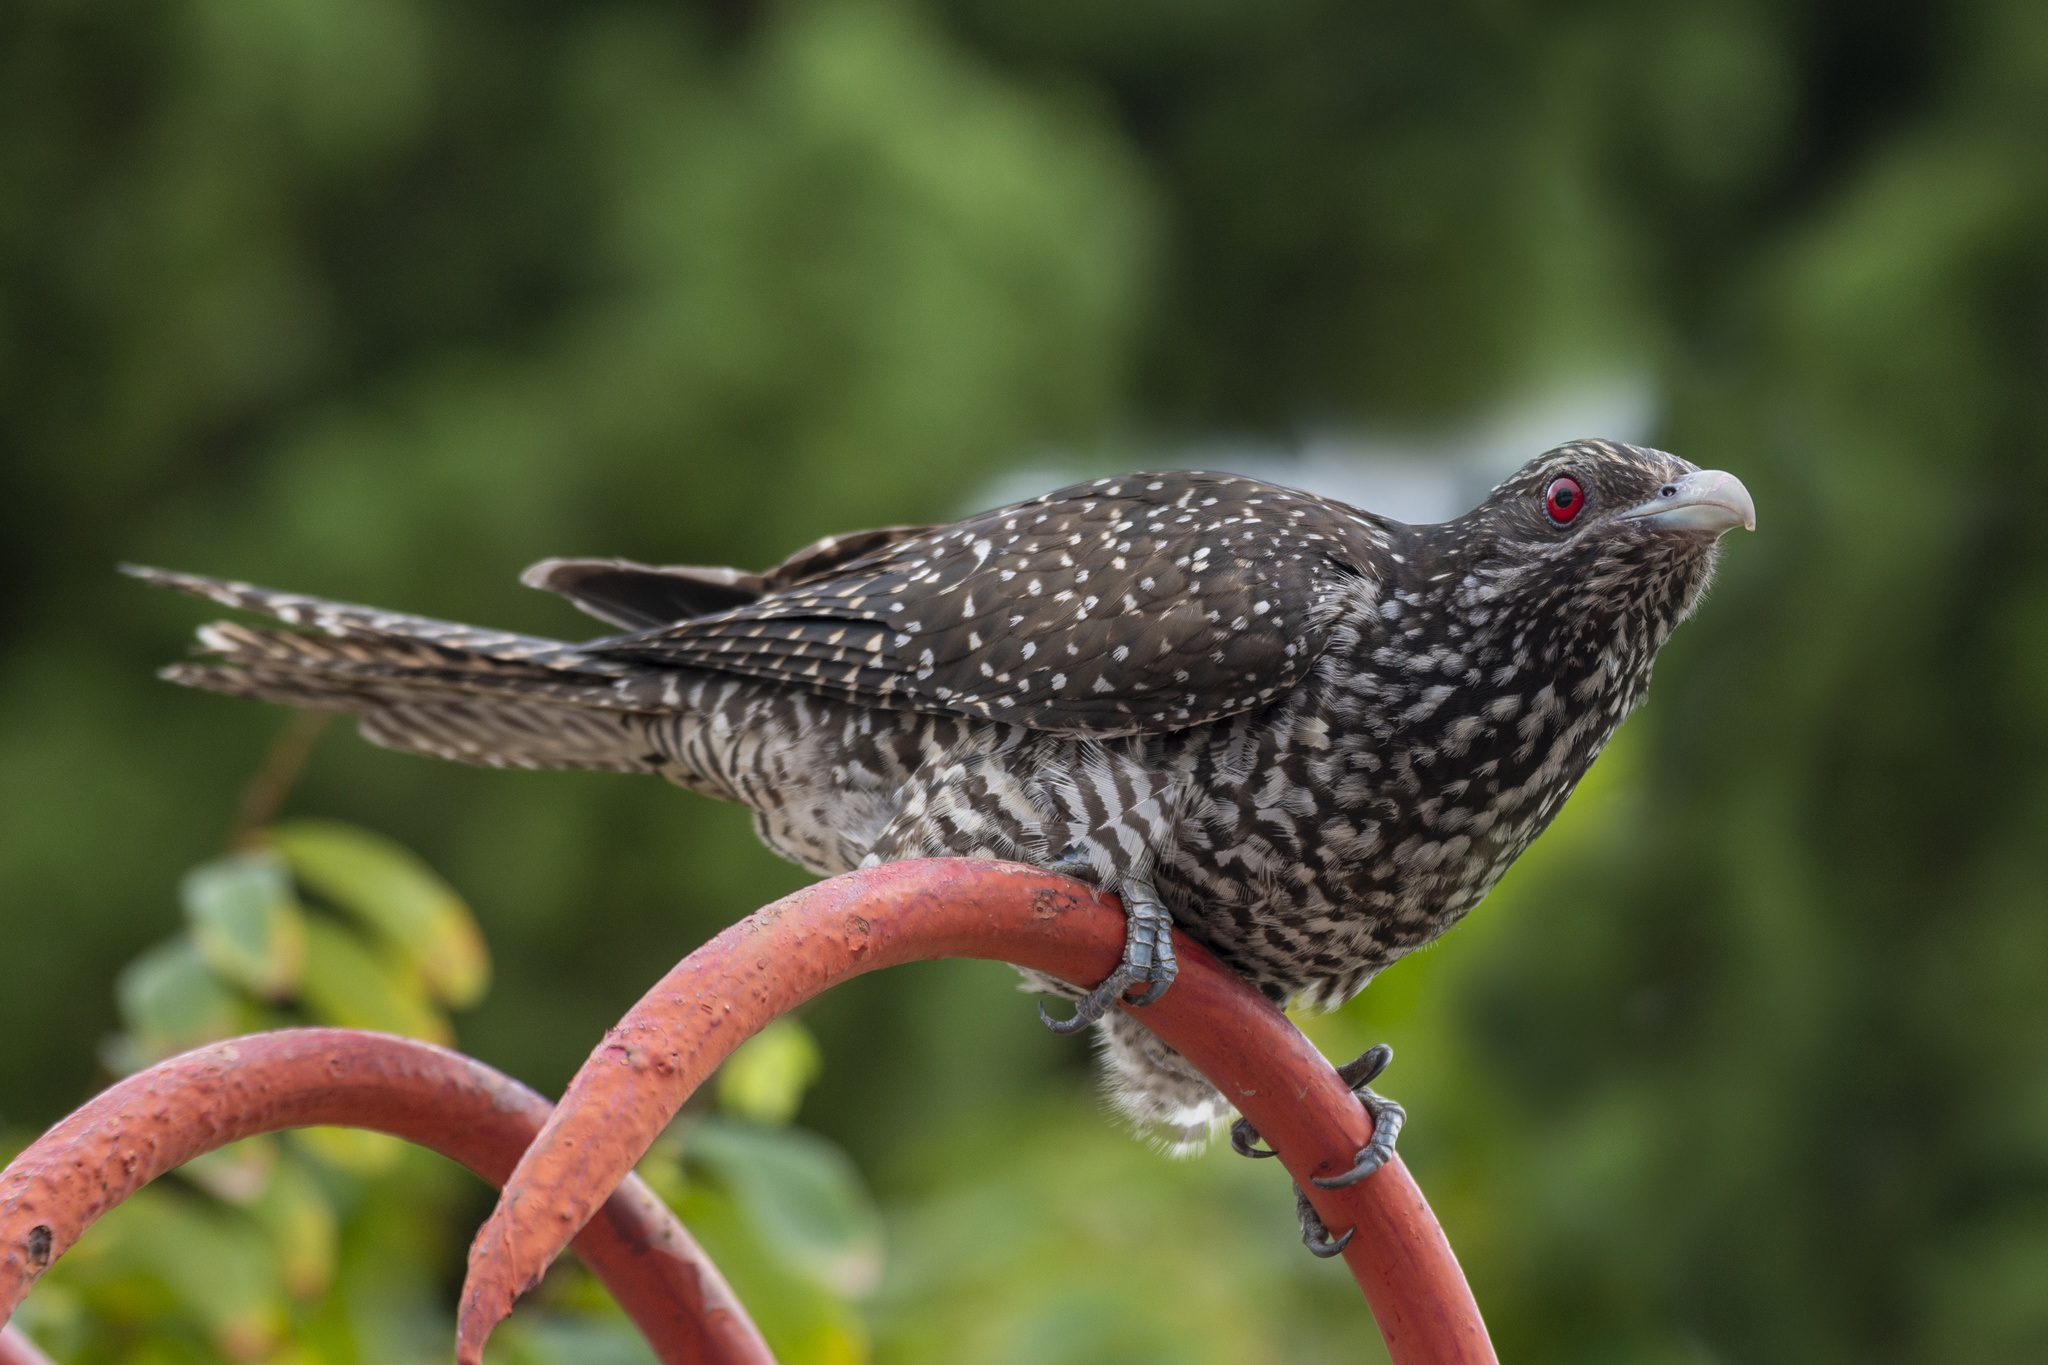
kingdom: Animalia
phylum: Chordata
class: Aves
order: Cuculiformes
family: Cuculidae
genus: Eudynamys
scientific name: Eudynamys scolopaceus
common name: Asian koel
